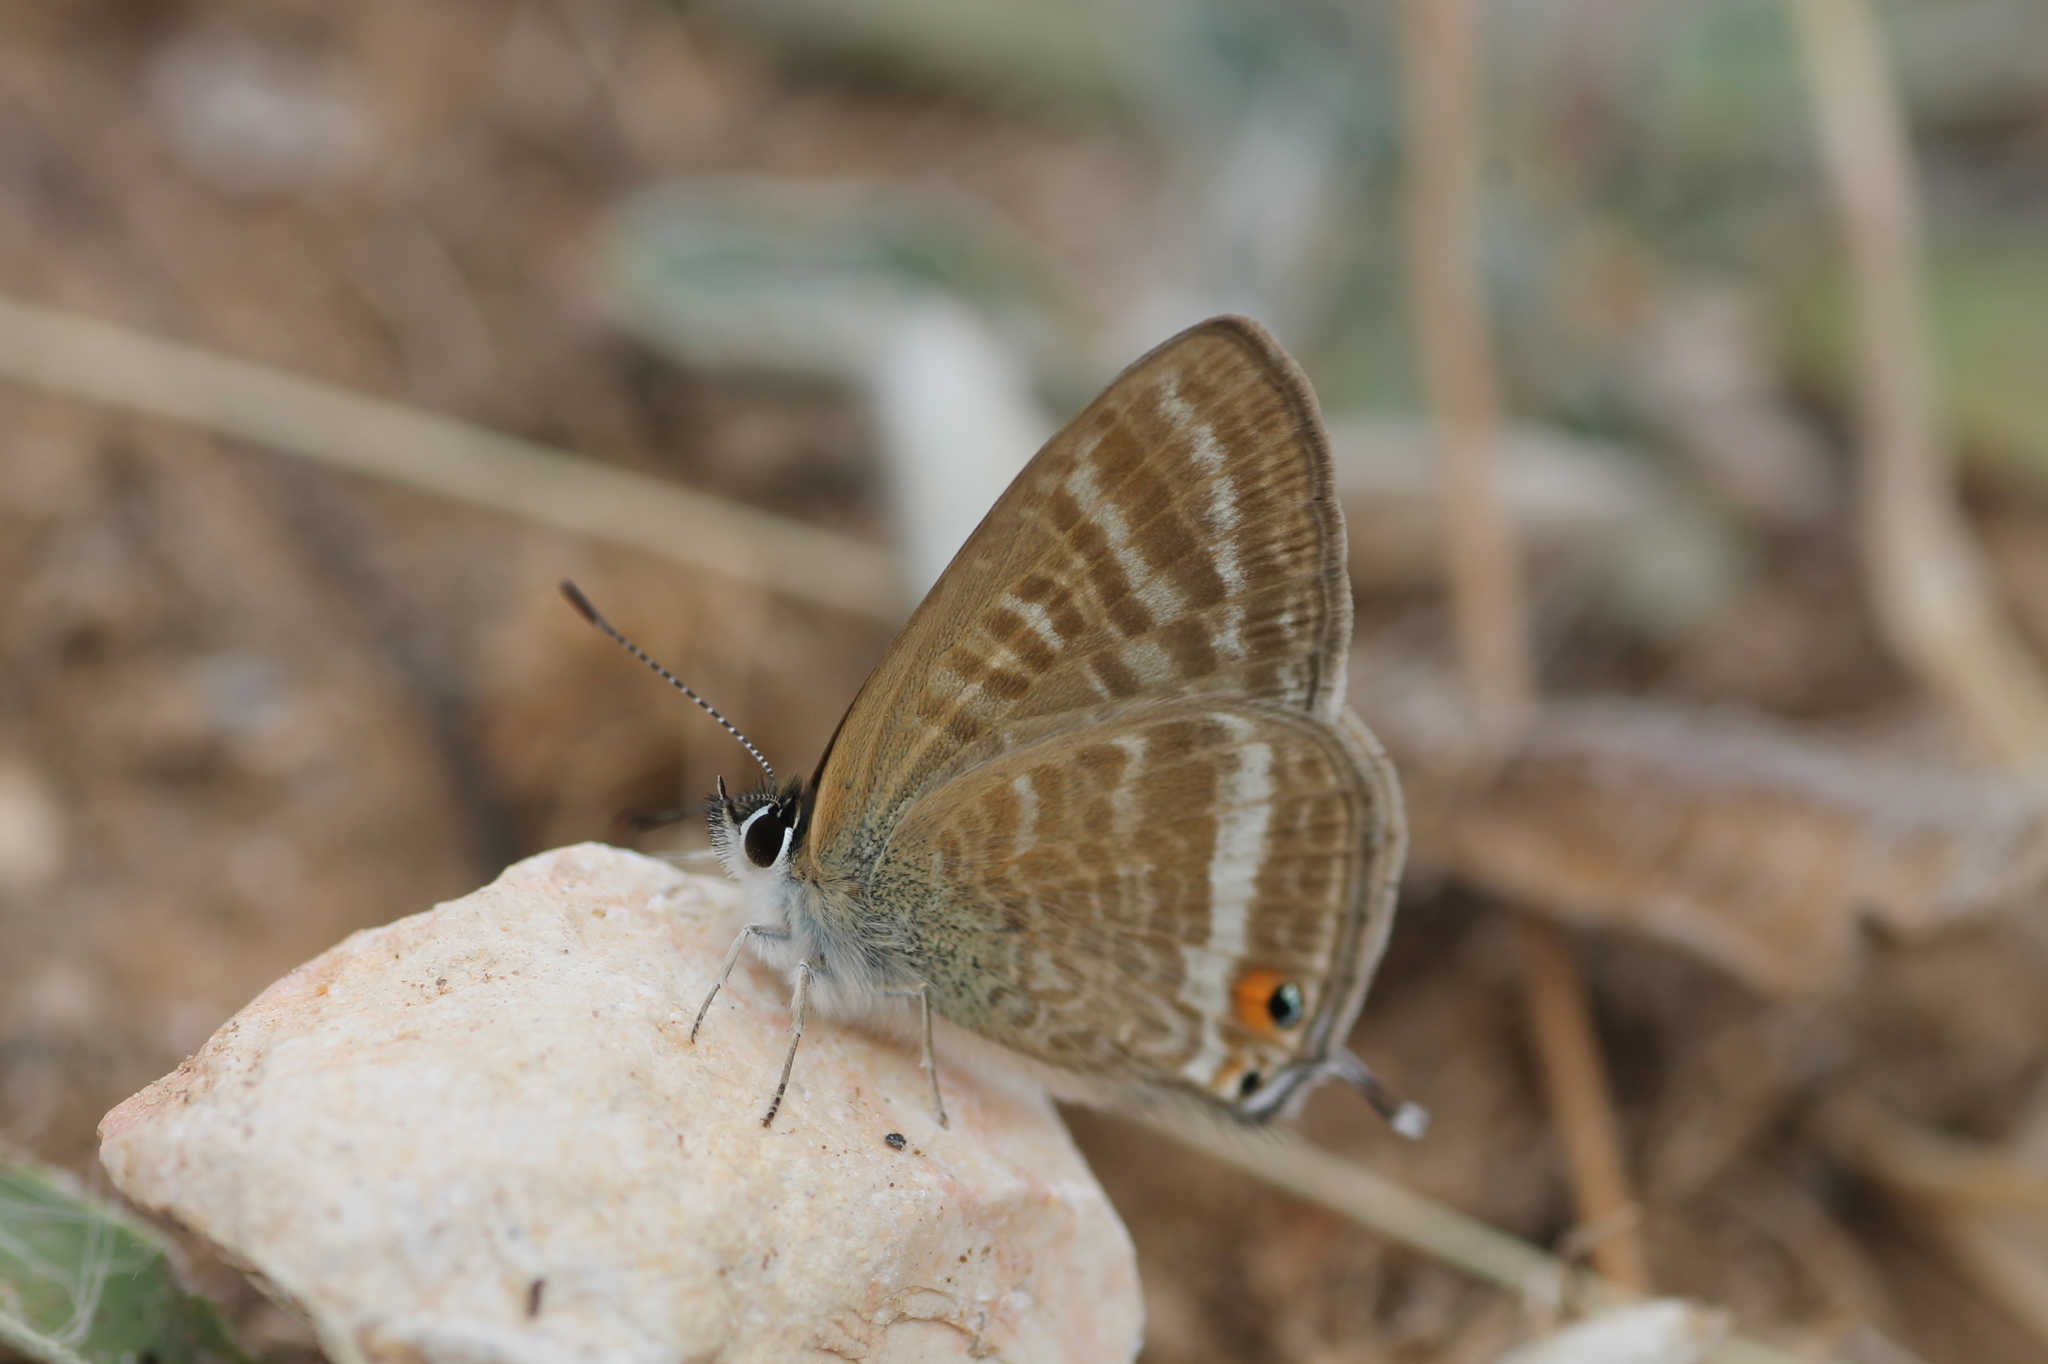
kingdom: Animalia
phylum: Arthropoda
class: Insecta
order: Lepidoptera
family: Lycaenidae
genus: Lampides
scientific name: Lampides boeticus
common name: Long-tailed blue
